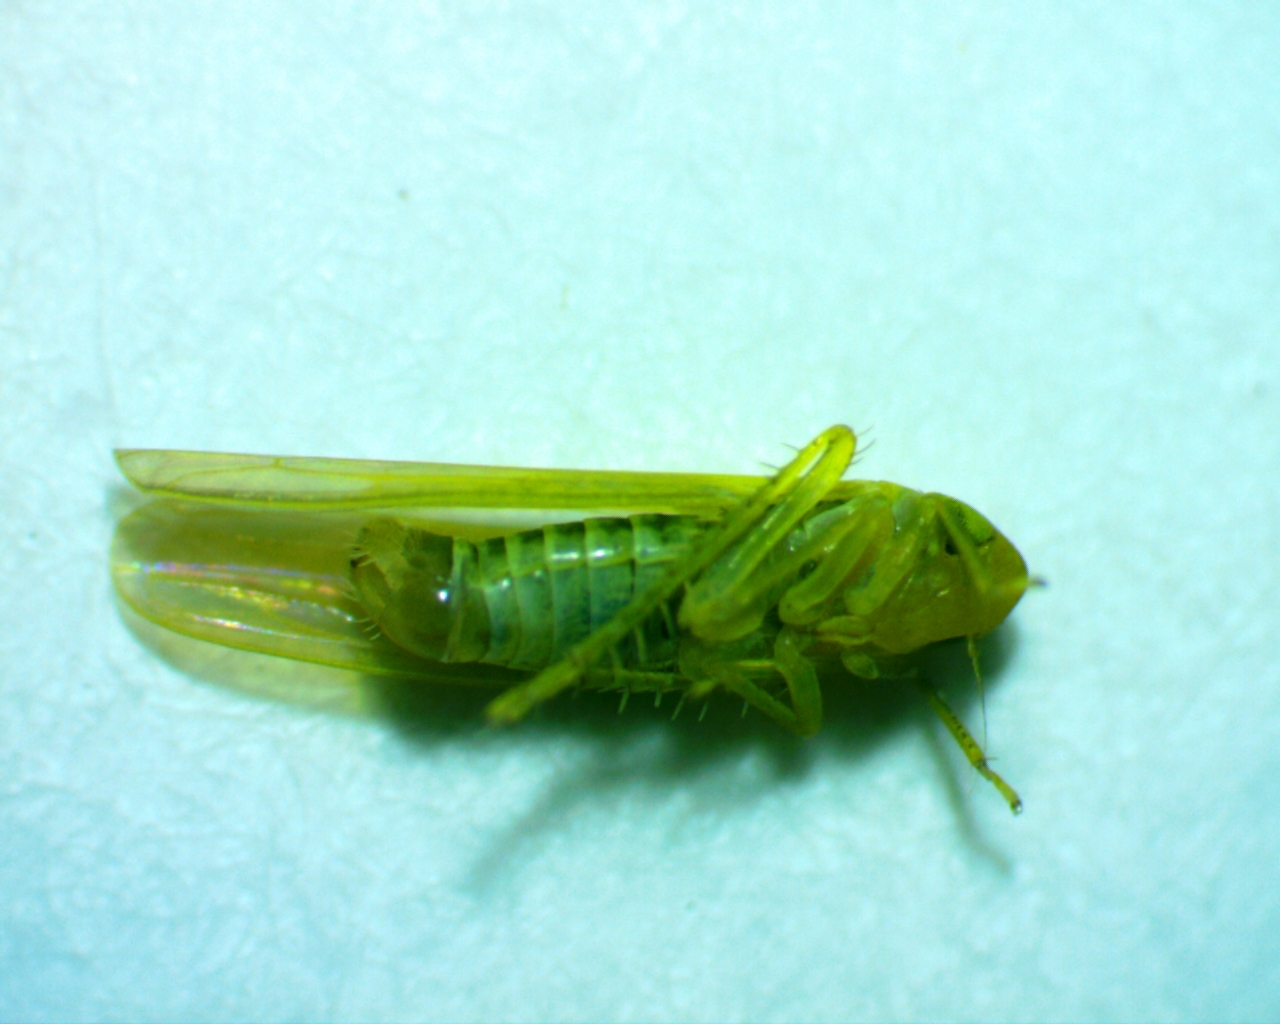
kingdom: Animalia
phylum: Arthropoda
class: Insecta
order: Hemiptera
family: Cicadellidae
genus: Forcipata
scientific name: Forcipata loca
